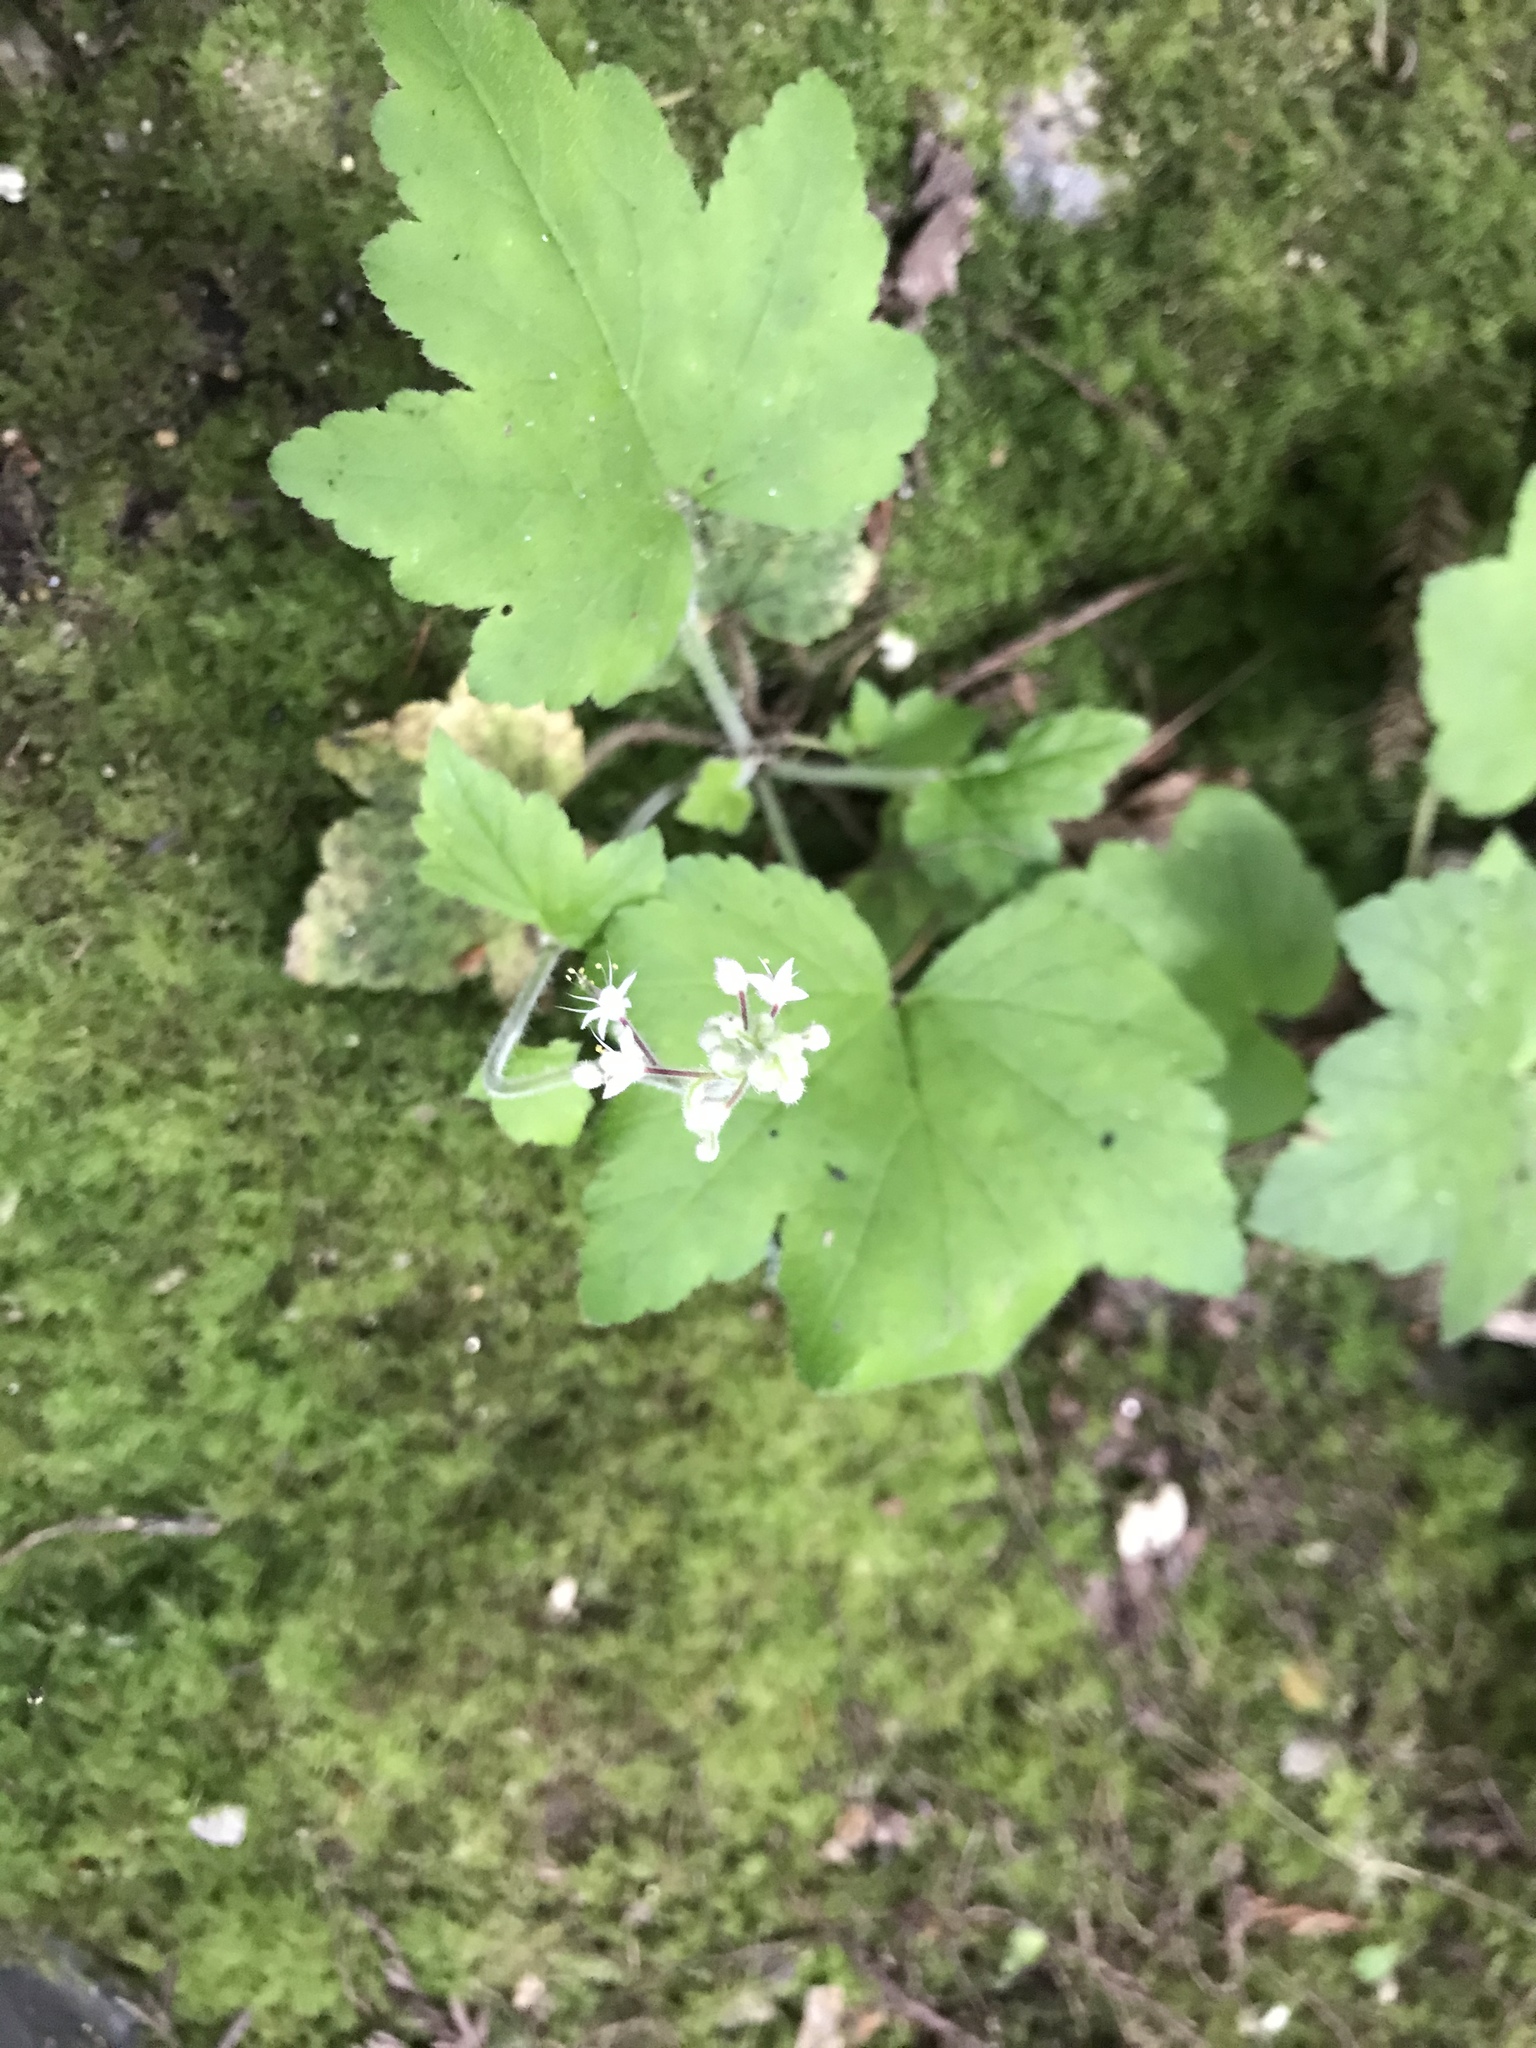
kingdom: Plantae
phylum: Tracheophyta
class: Magnoliopsida
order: Saxifragales
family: Saxifragaceae
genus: Tiarella
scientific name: Tiarella trifoliata
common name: Sugar-scoop
